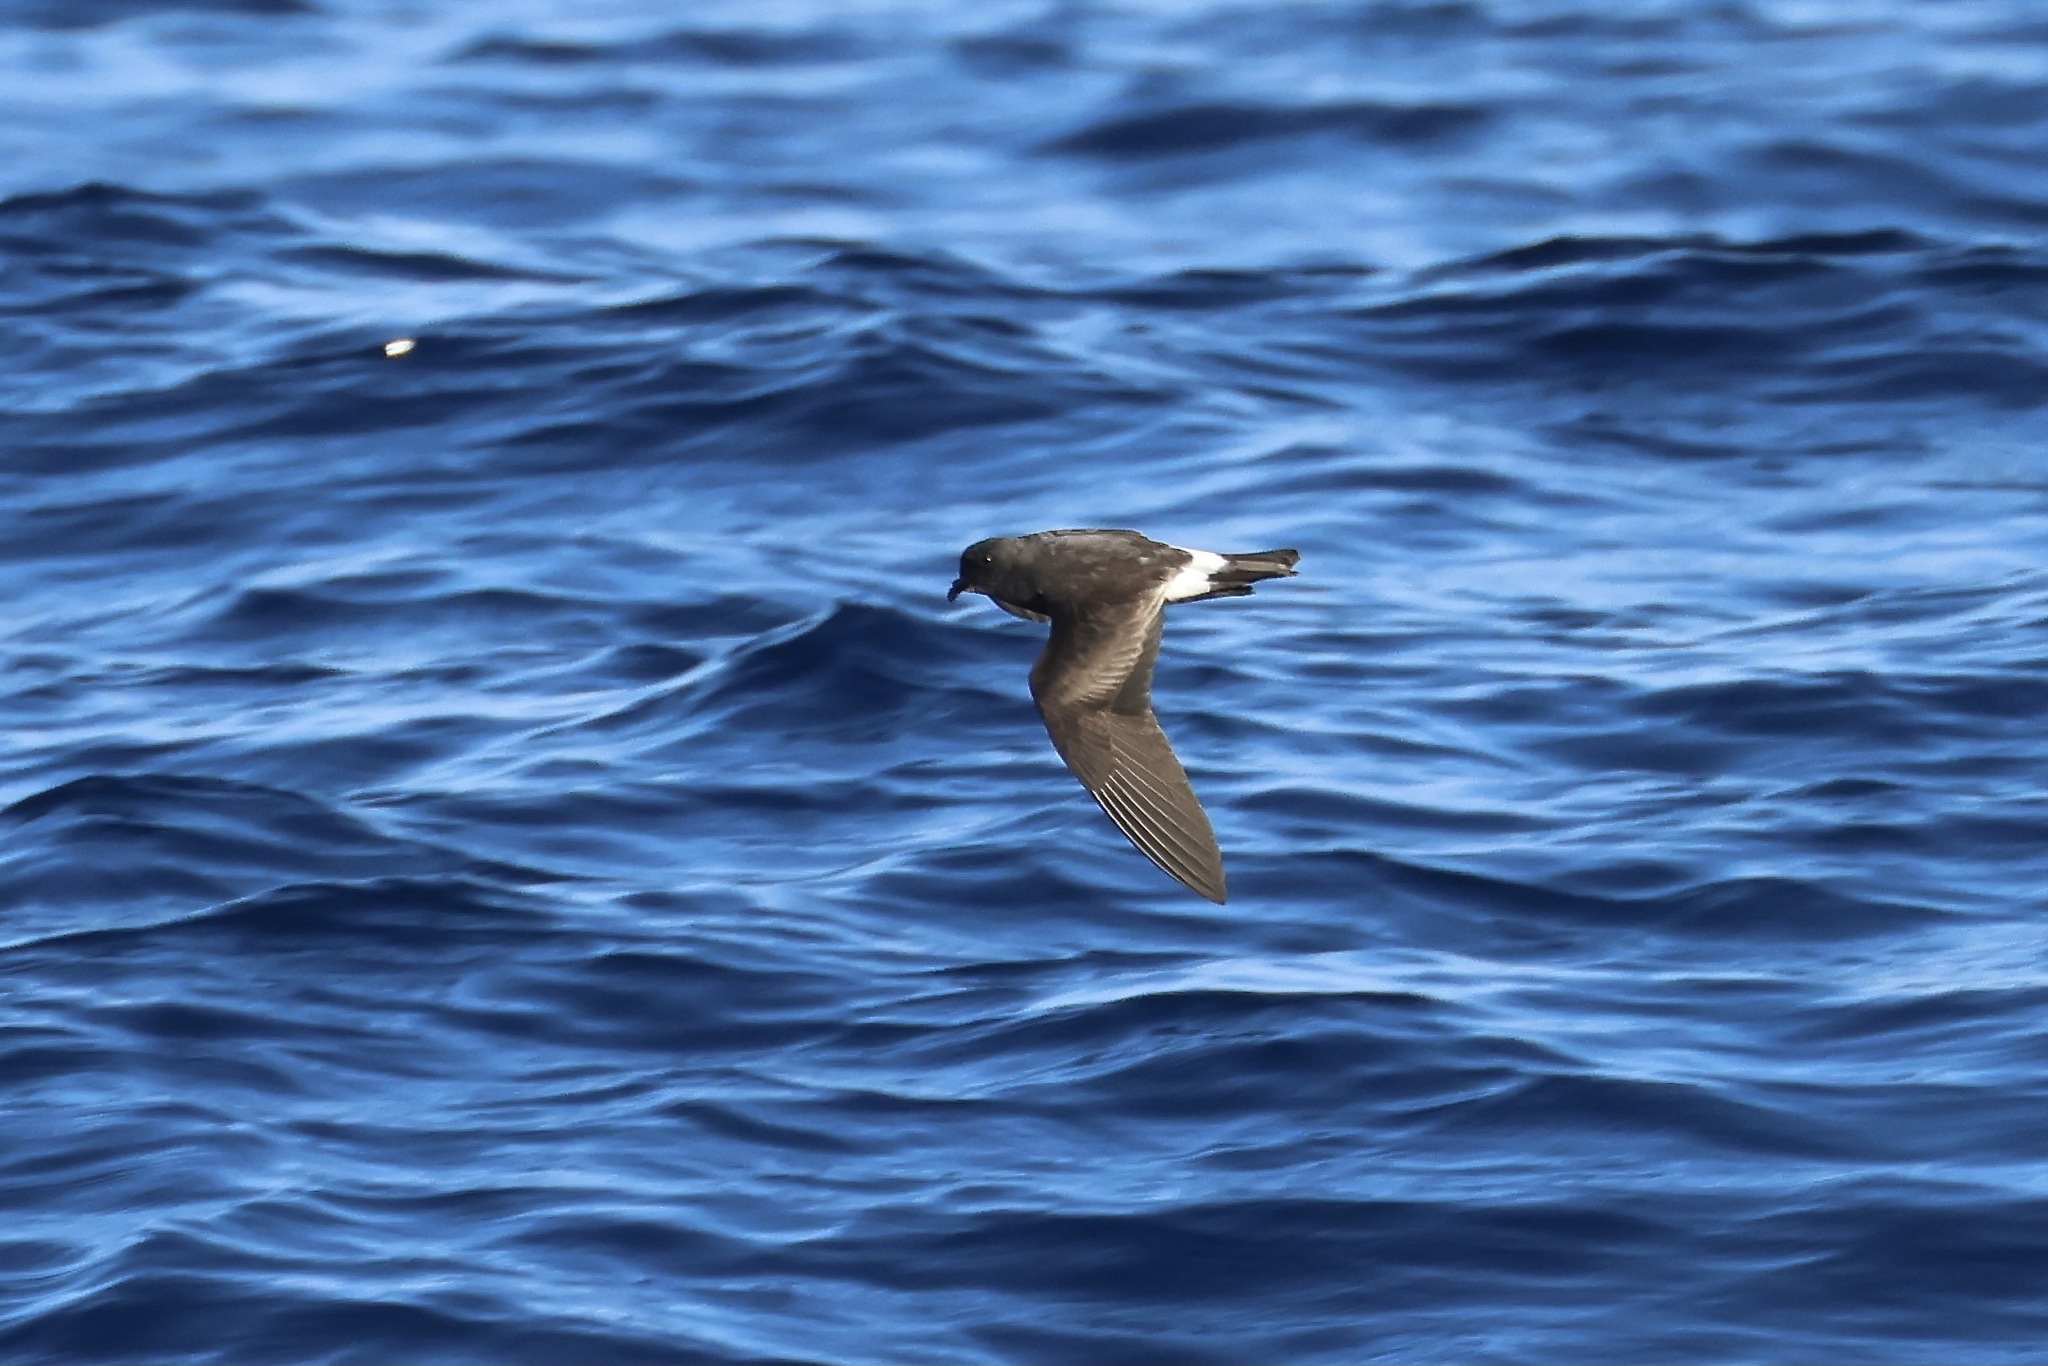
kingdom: Animalia
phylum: Chordata
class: Aves
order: Procellariiformes
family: Hydrobatidae
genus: Oceanodroma
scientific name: Oceanodroma castro
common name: Band-rumped storm-petrel
